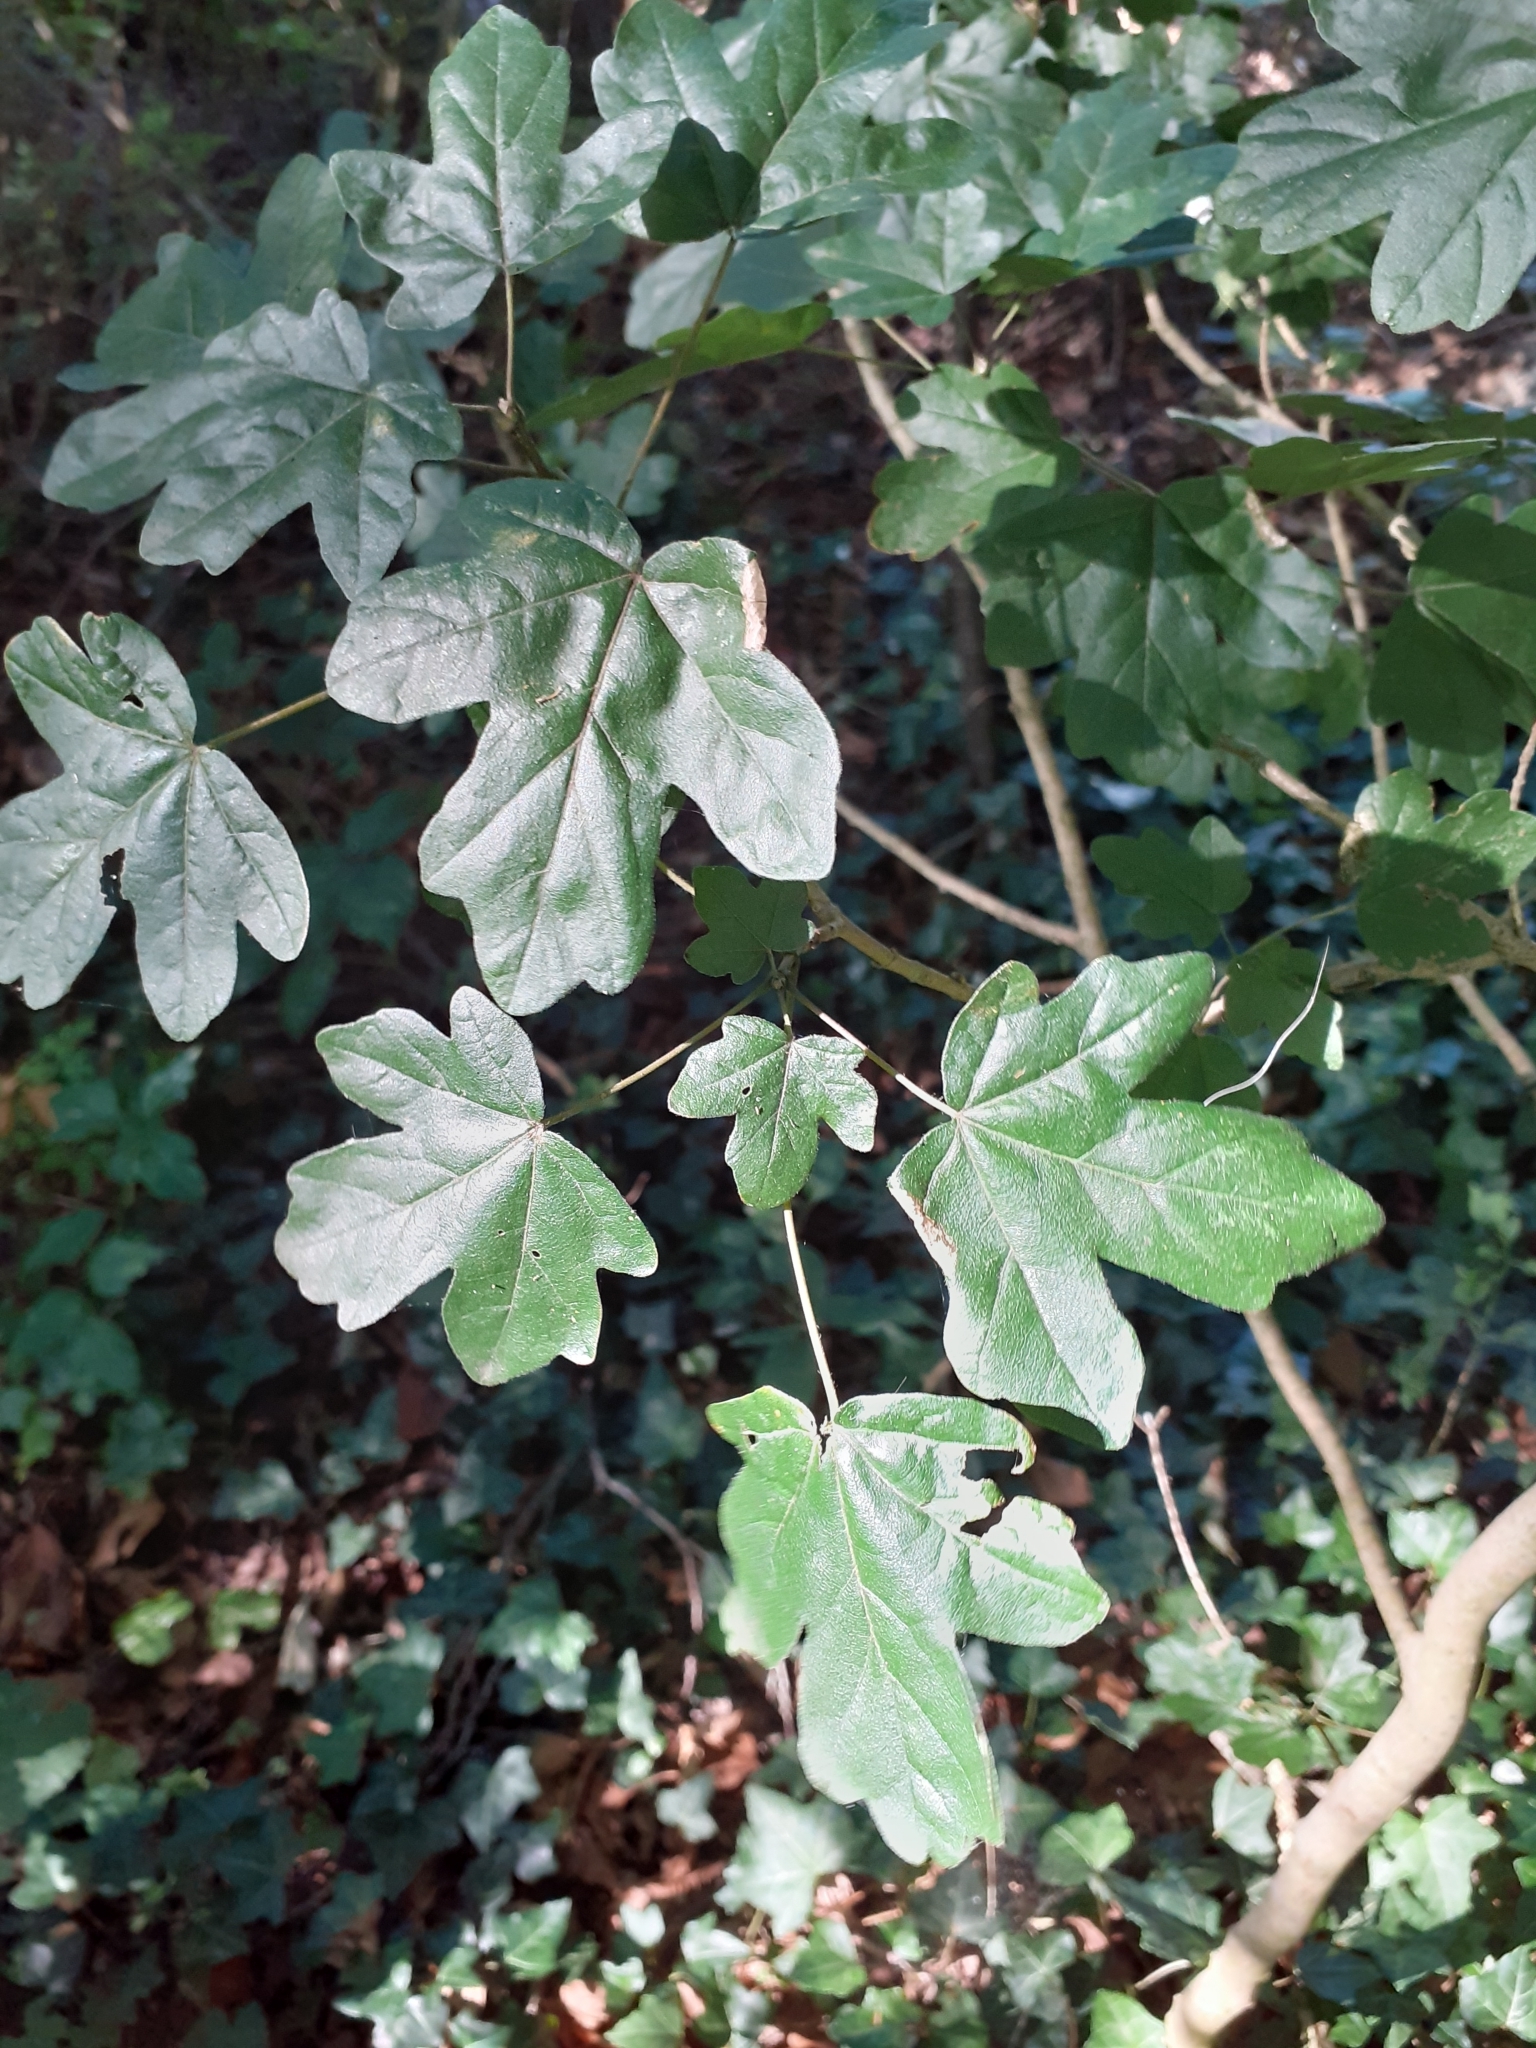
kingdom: Plantae
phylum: Tracheophyta
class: Magnoliopsida
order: Sapindales
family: Sapindaceae
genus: Acer
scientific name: Acer campestre
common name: Field maple
